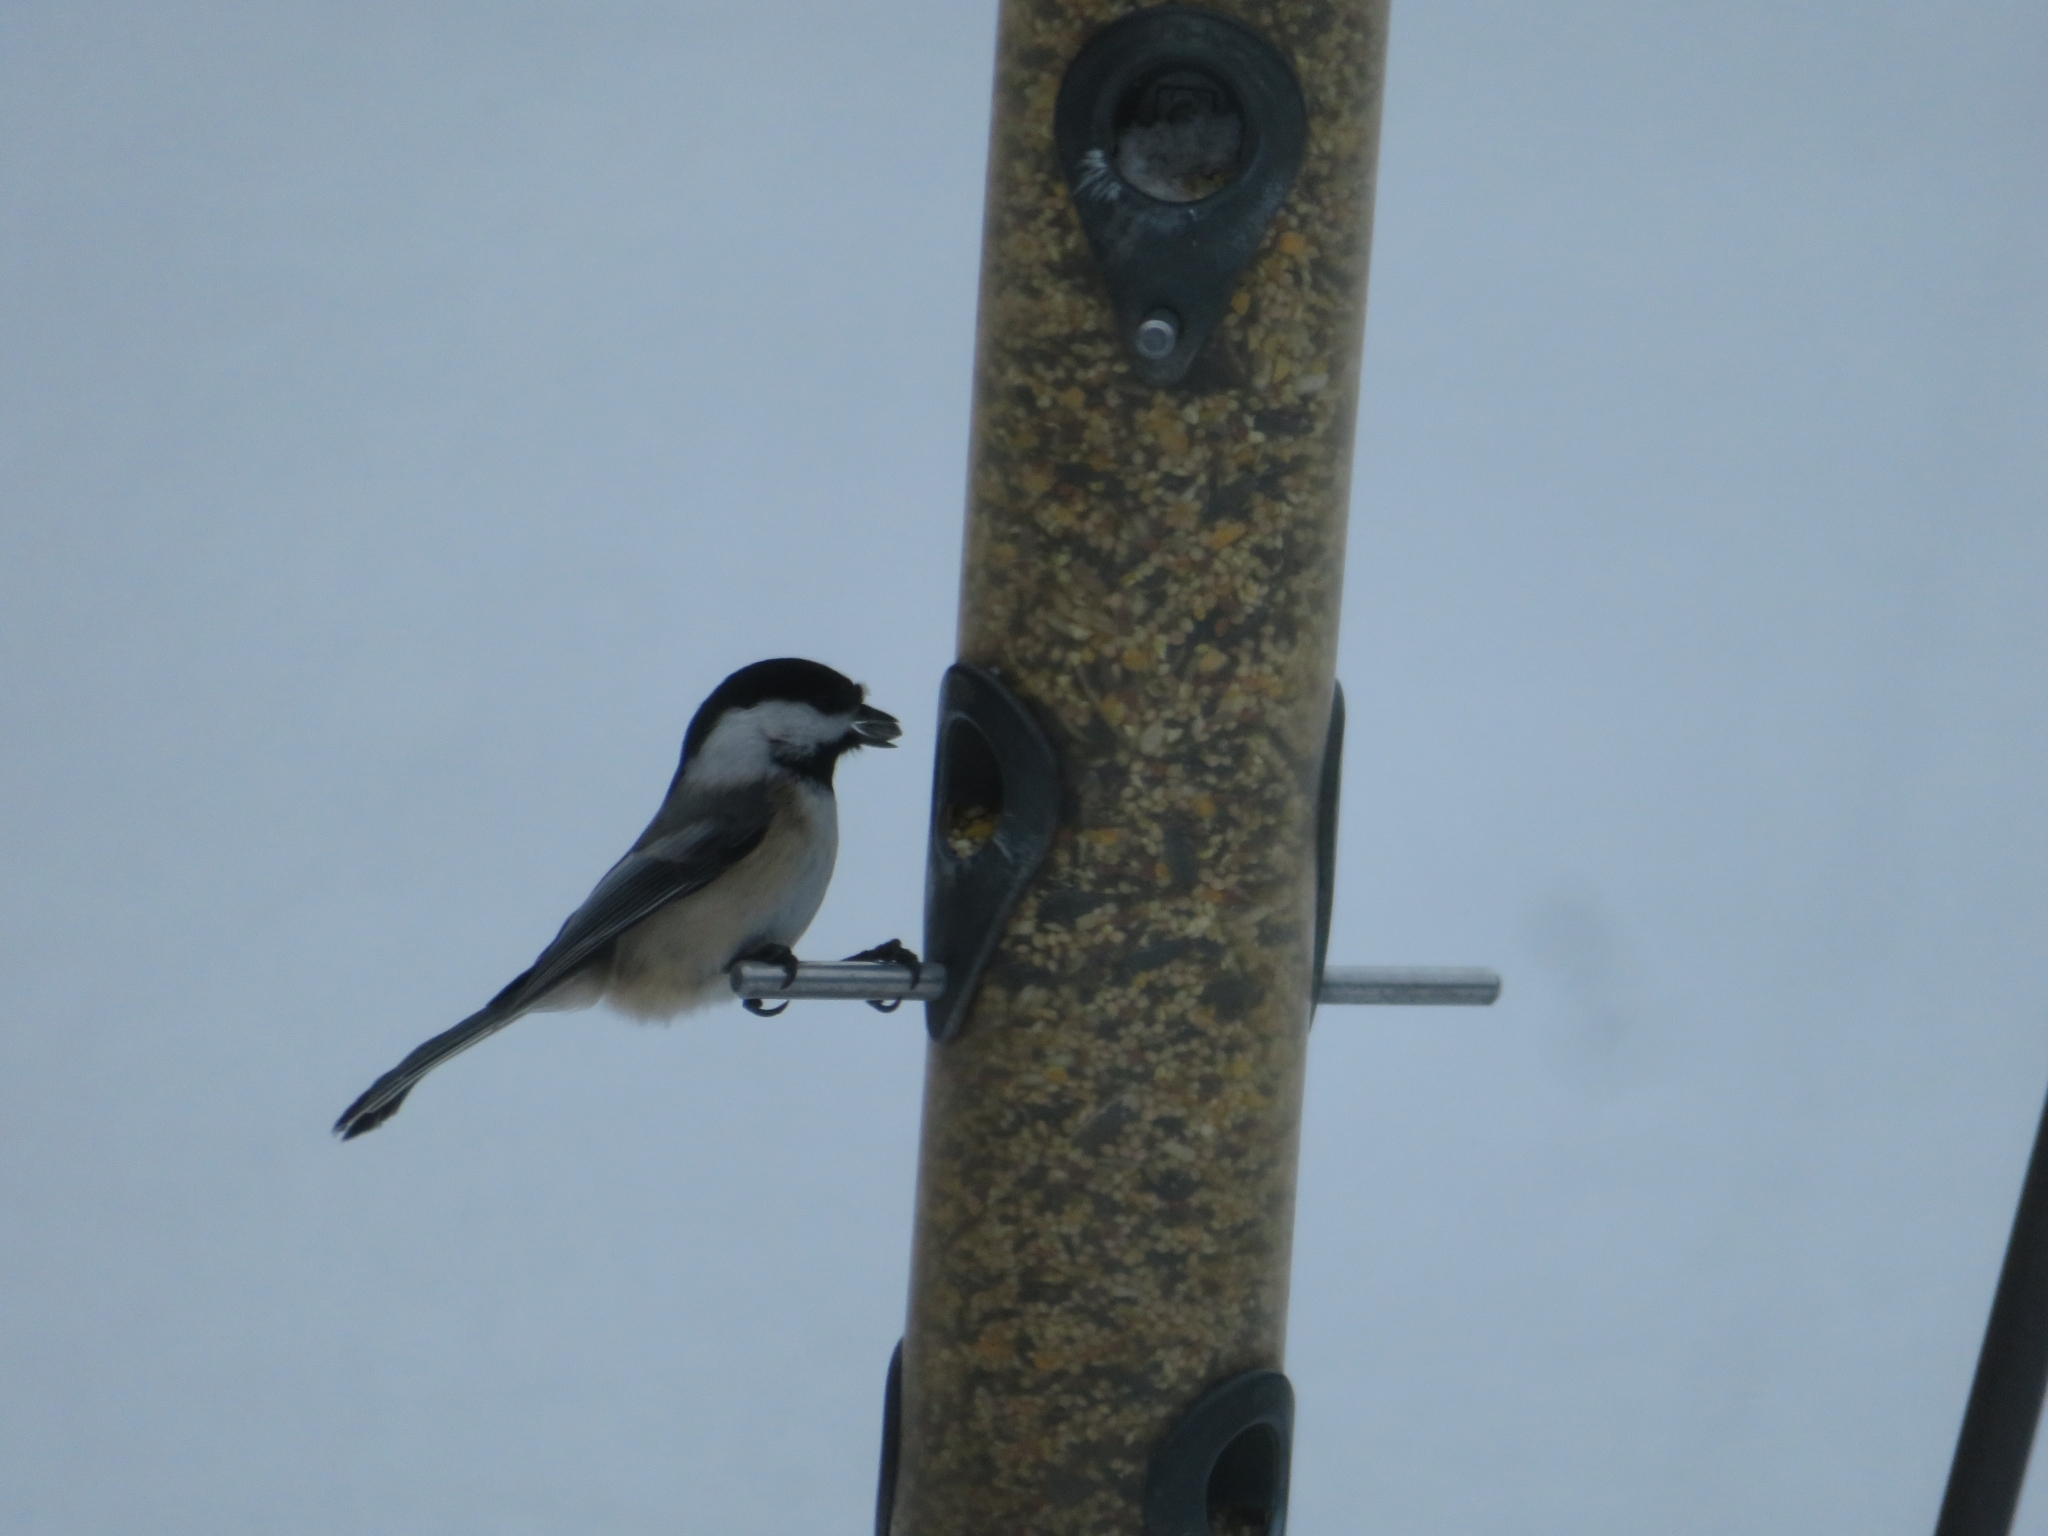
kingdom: Animalia
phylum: Chordata
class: Aves
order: Passeriformes
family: Paridae
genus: Poecile
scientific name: Poecile atricapillus
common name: Black-capped chickadee
